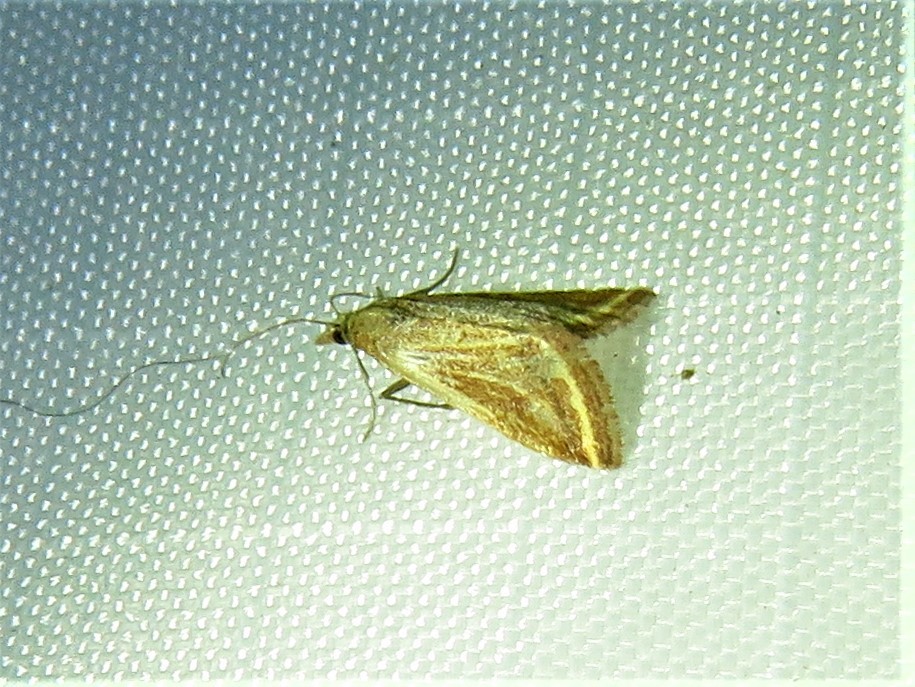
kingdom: Animalia
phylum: Arthropoda
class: Insecta
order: Lepidoptera
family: Crambidae
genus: Microtheoris
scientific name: Microtheoris ophionalis
